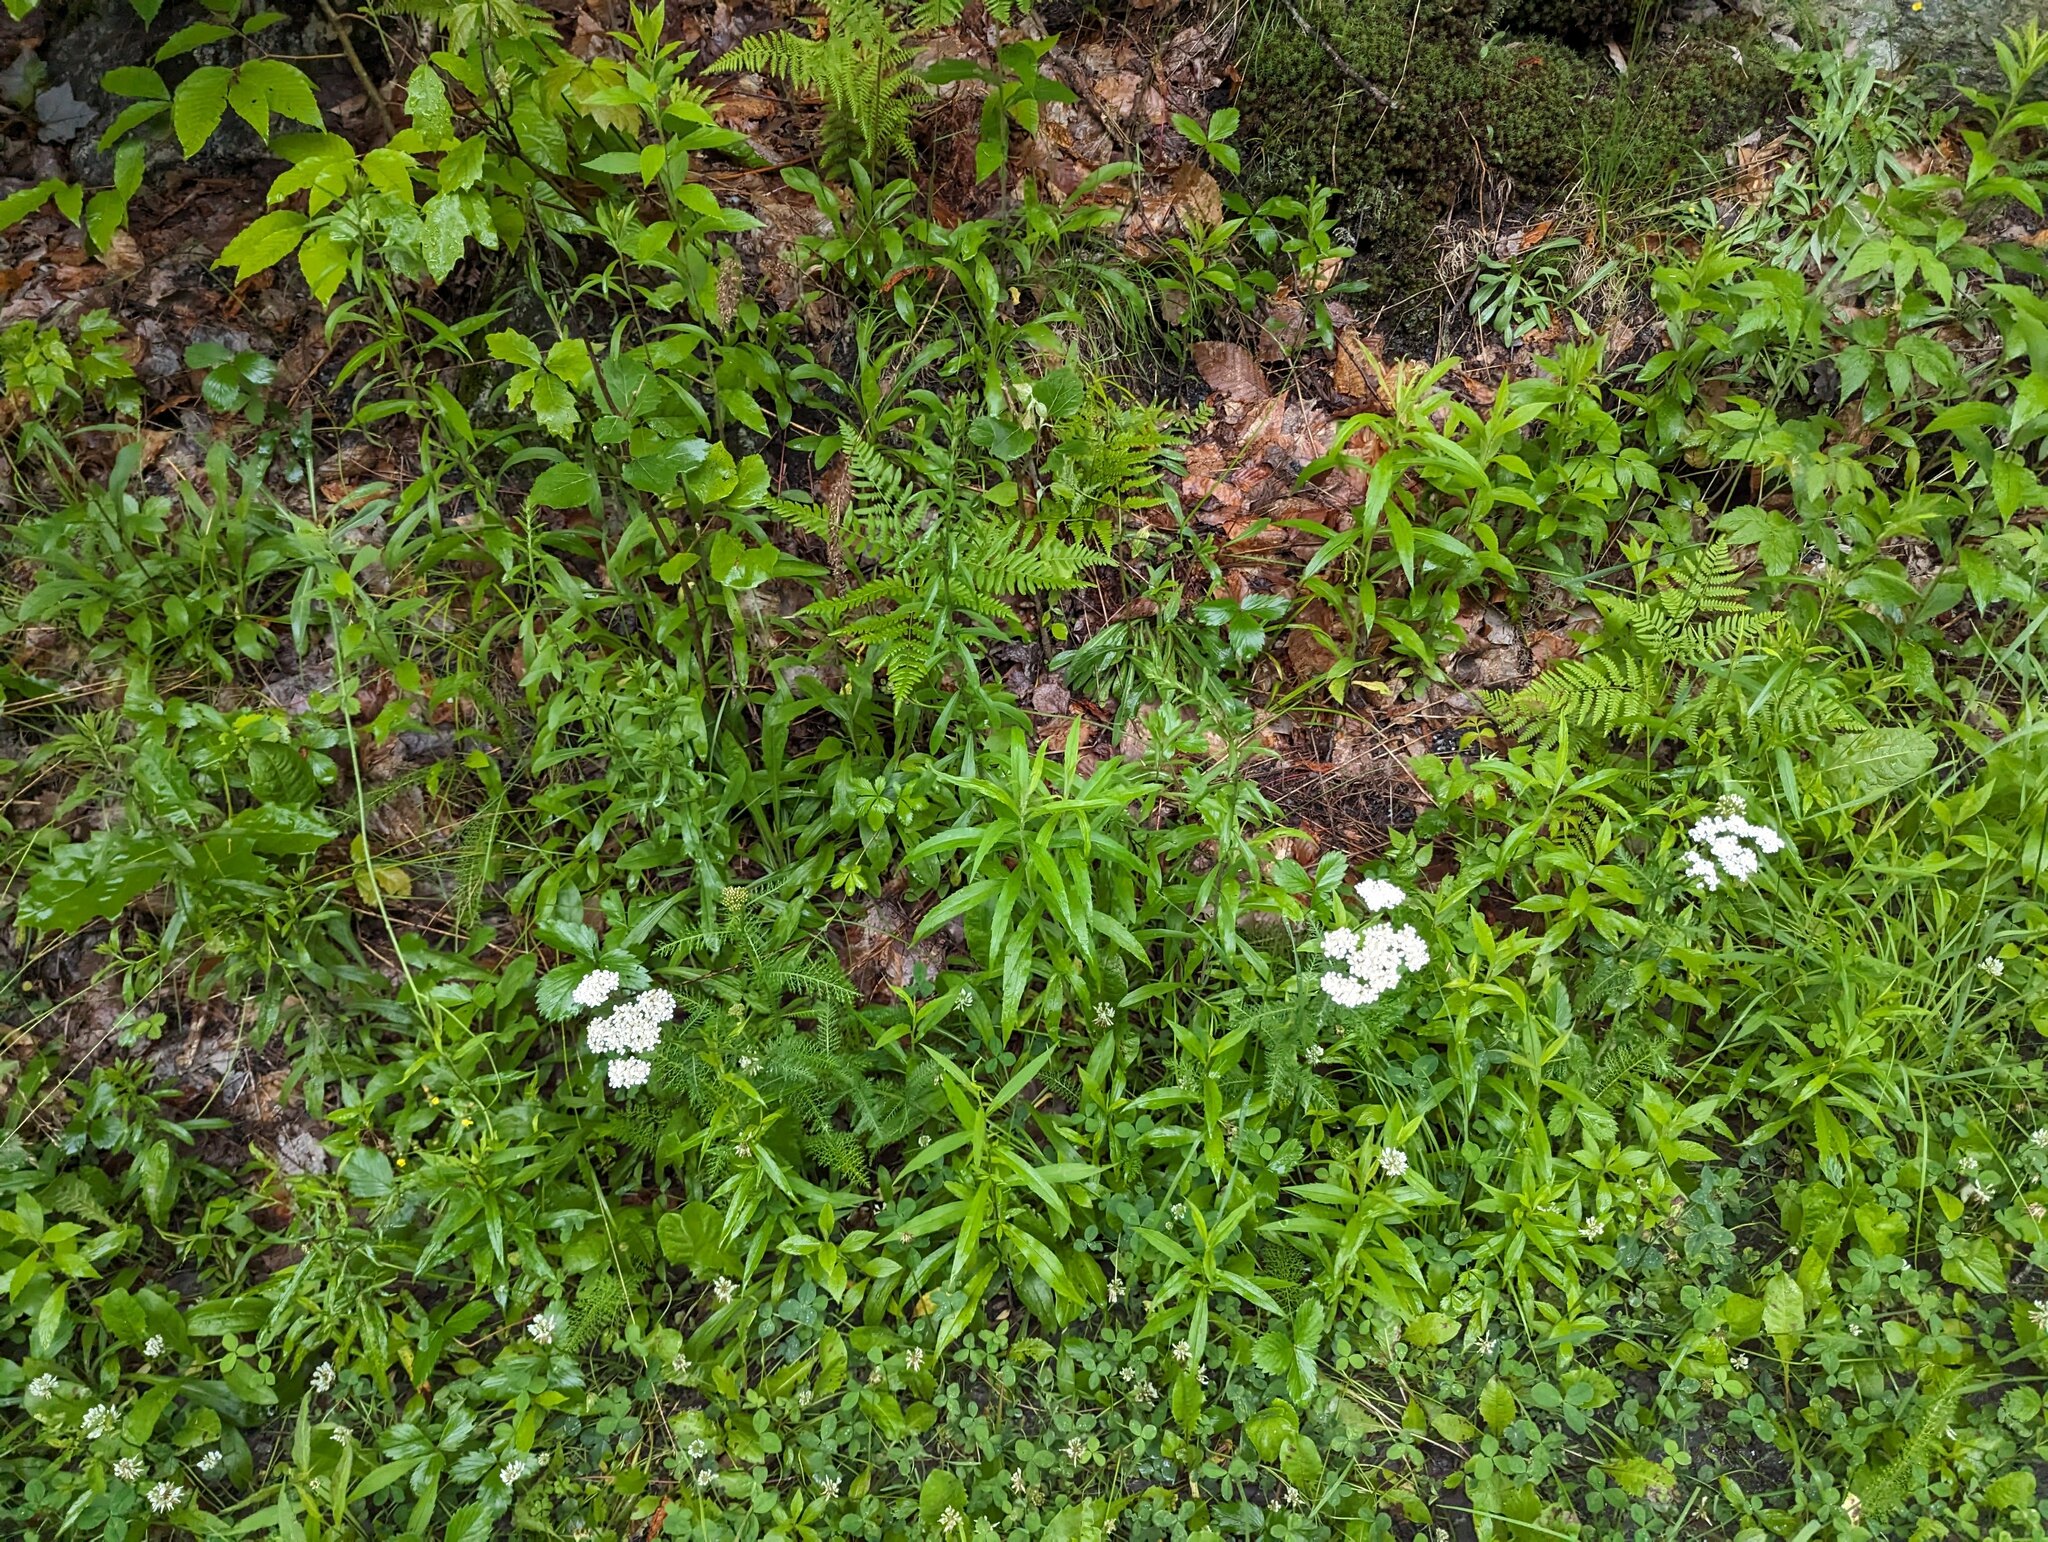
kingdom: Plantae
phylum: Tracheophyta
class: Magnoliopsida
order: Asterales
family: Asteraceae
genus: Achillea
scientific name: Achillea millefolium
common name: Yarrow
